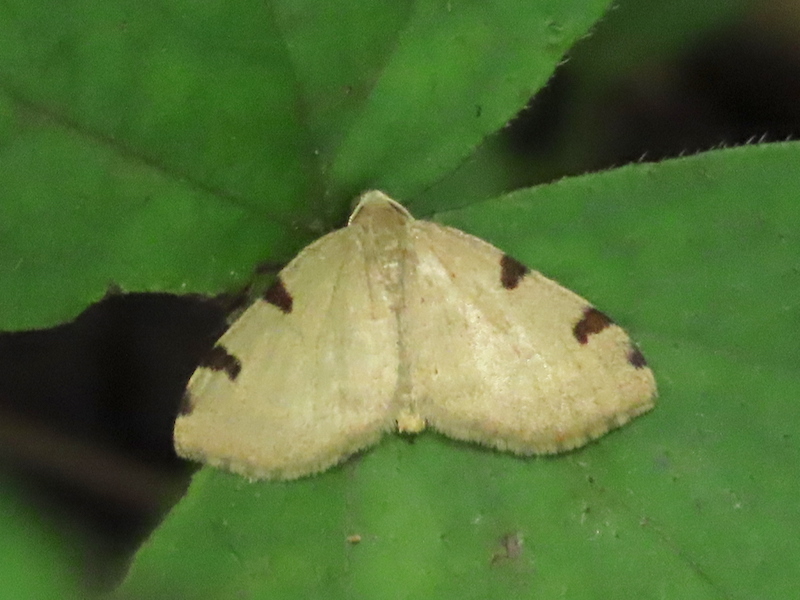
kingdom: Animalia
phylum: Arthropoda
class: Insecta
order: Lepidoptera
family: Geometridae
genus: Heterophleps
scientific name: Heterophleps triguttaria
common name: Three-spotted fillip
